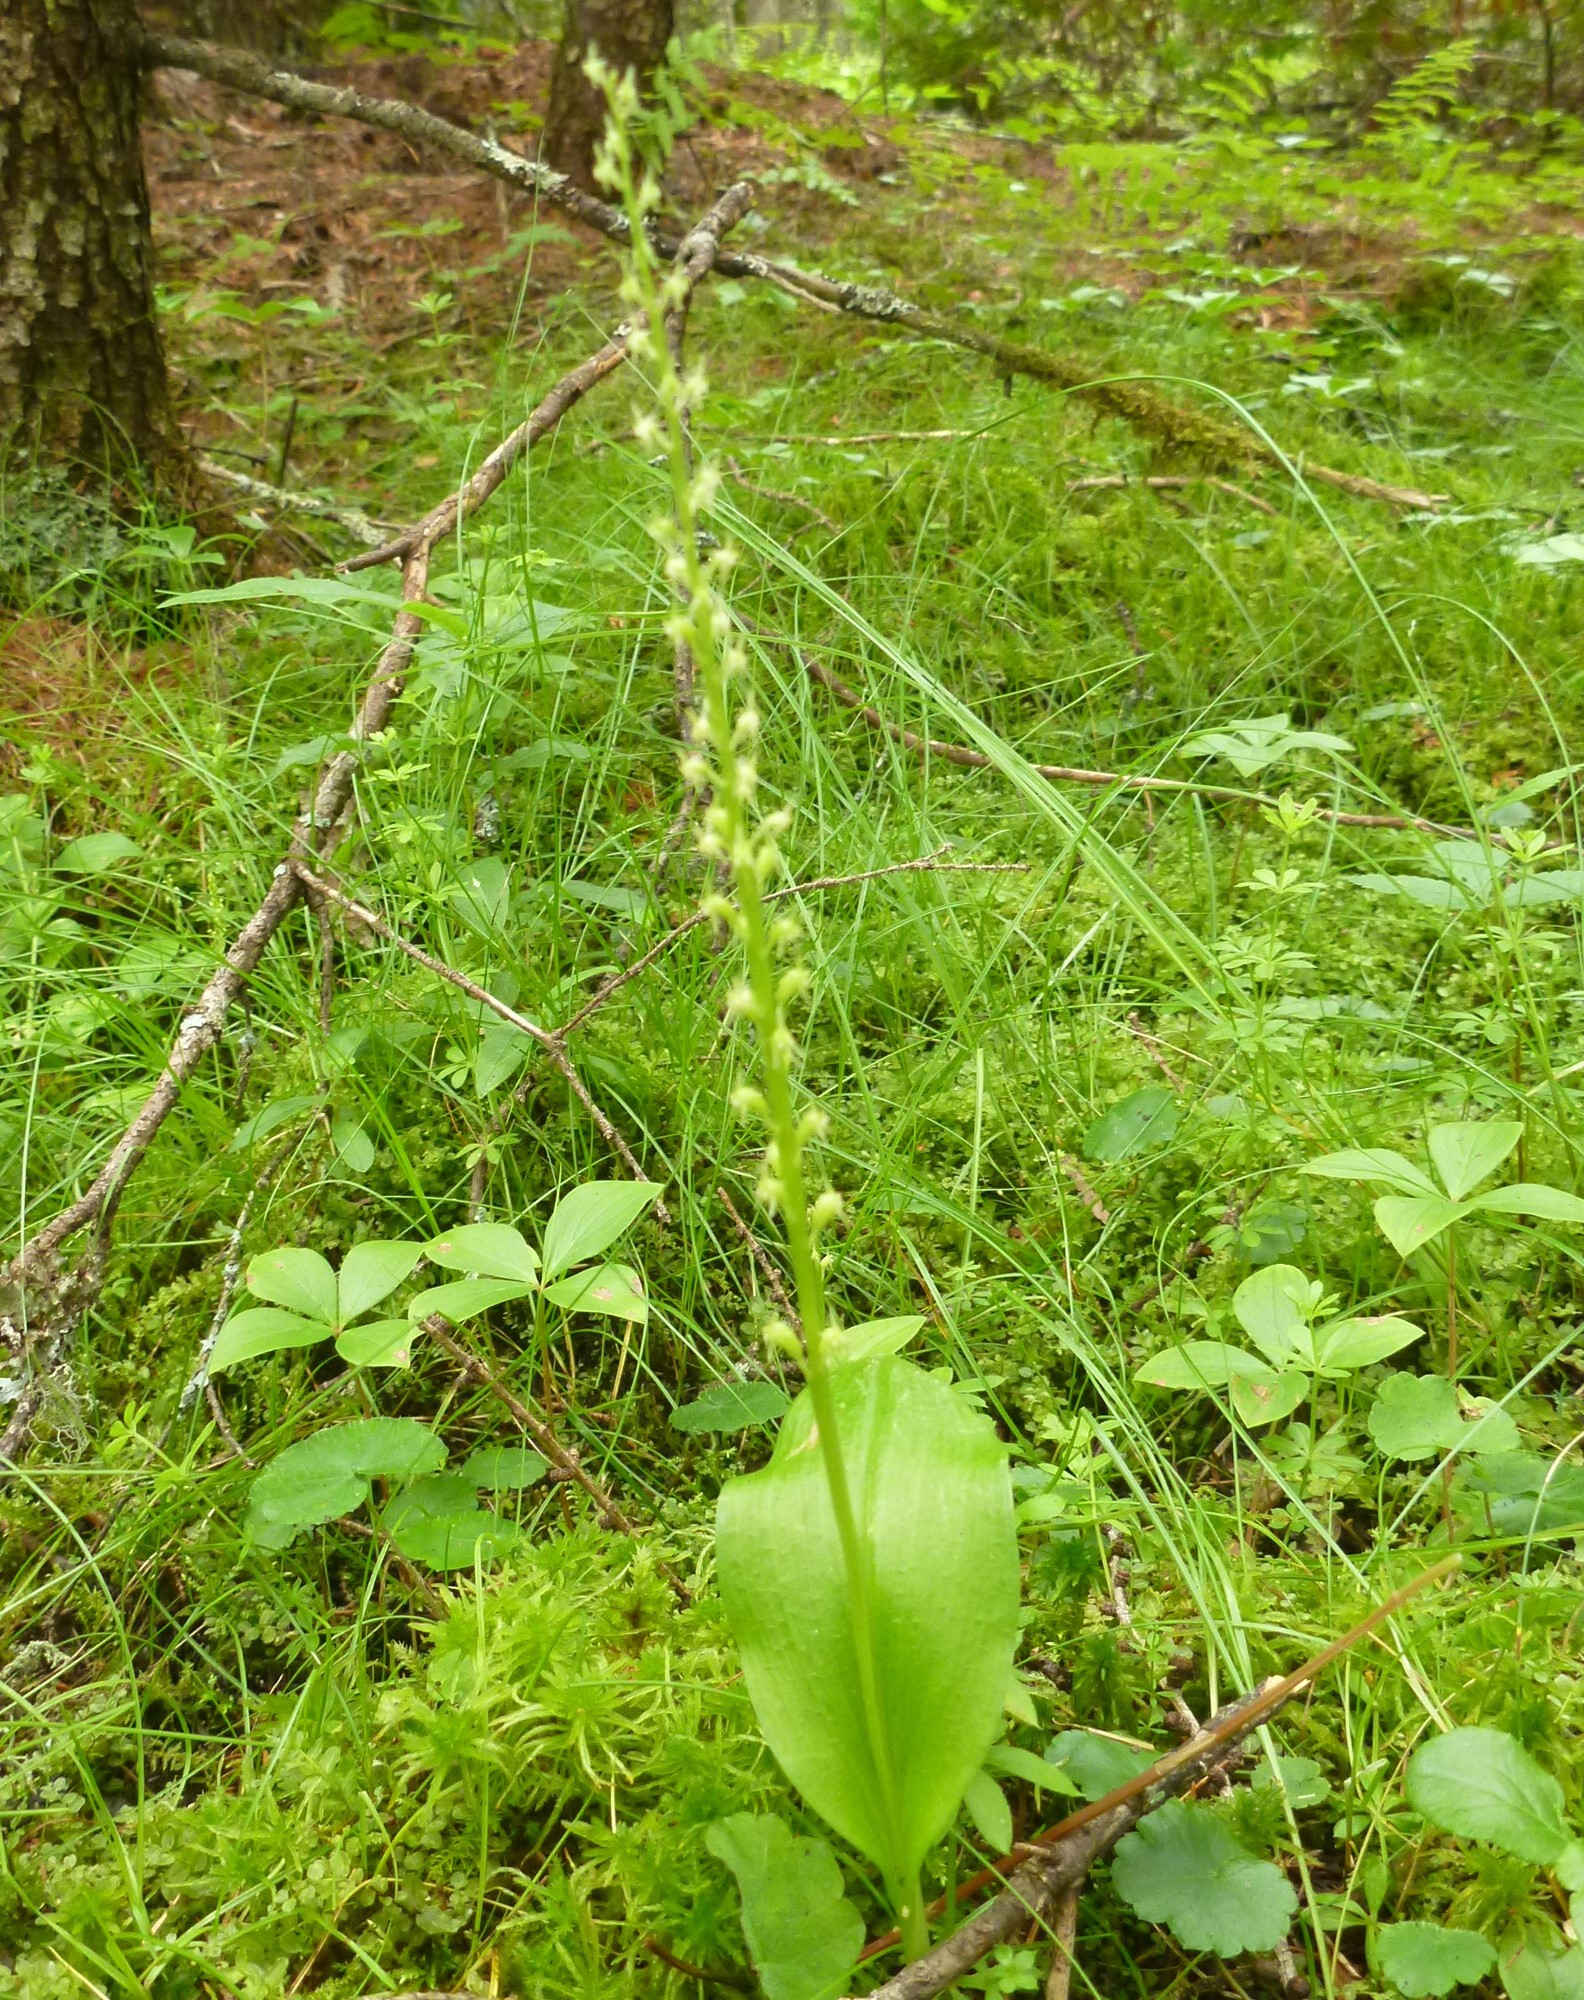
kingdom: Plantae
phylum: Tracheophyta
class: Liliopsida
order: Asparagales
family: Orchidaceae
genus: Malaxis
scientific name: Malaxis monophyllos
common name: White adder's-mouth
